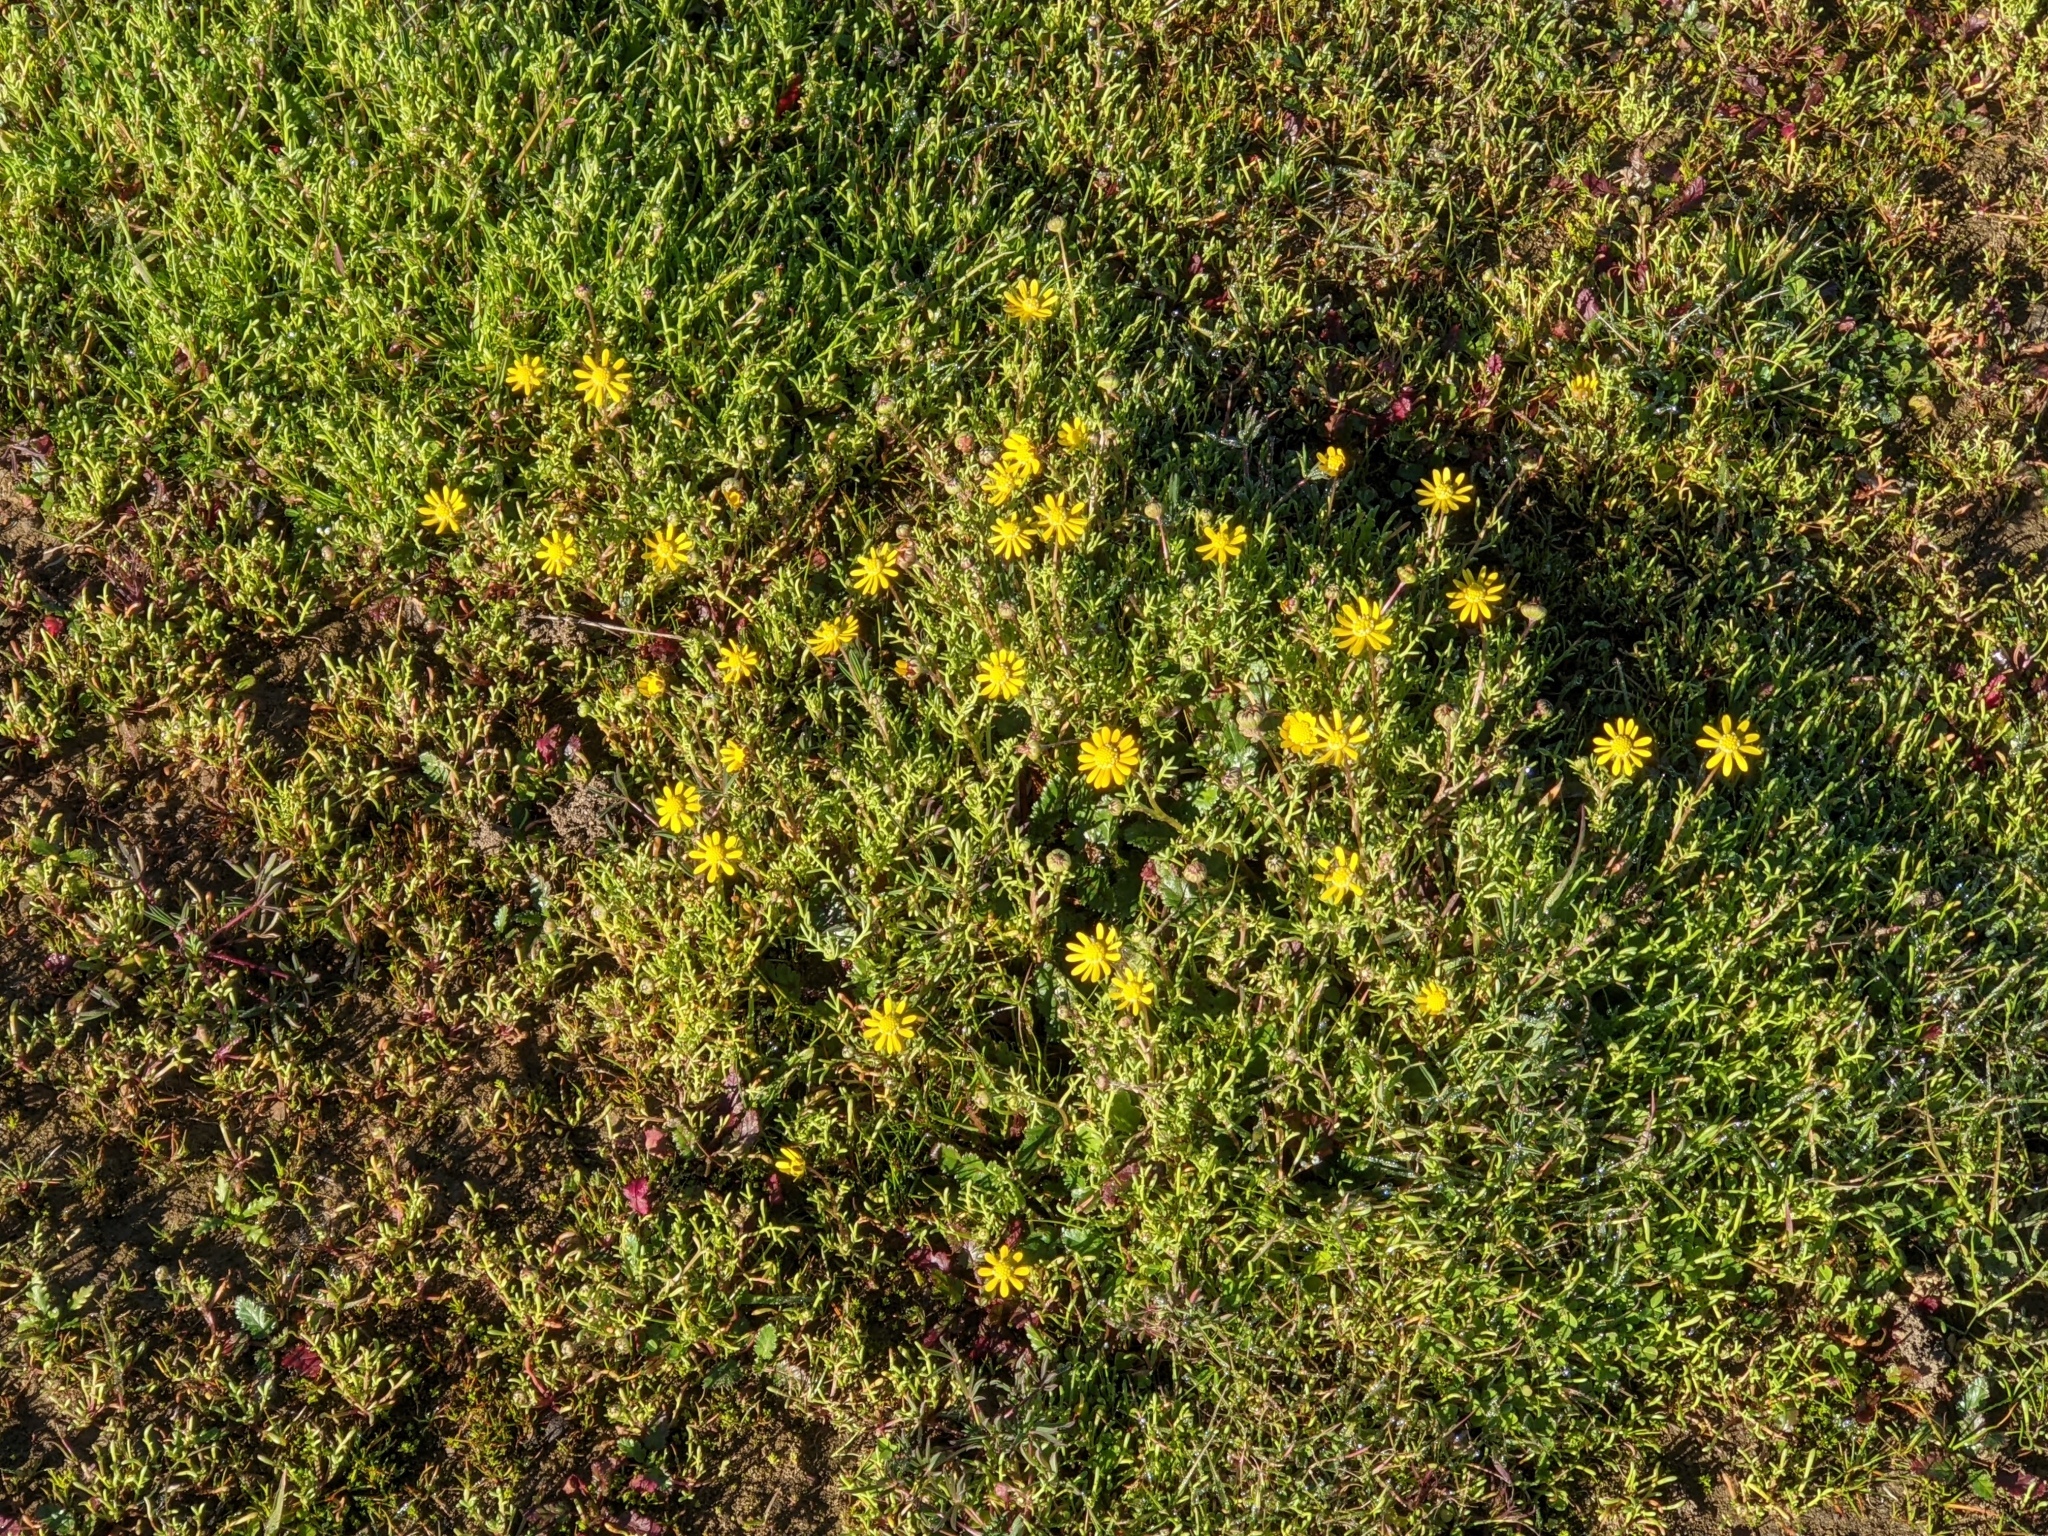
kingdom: Plantae
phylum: Tracheophyta
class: Magnoliopsida
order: Asterales
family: Asteraceae
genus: Blennosperma
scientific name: Blennosperma nanum
